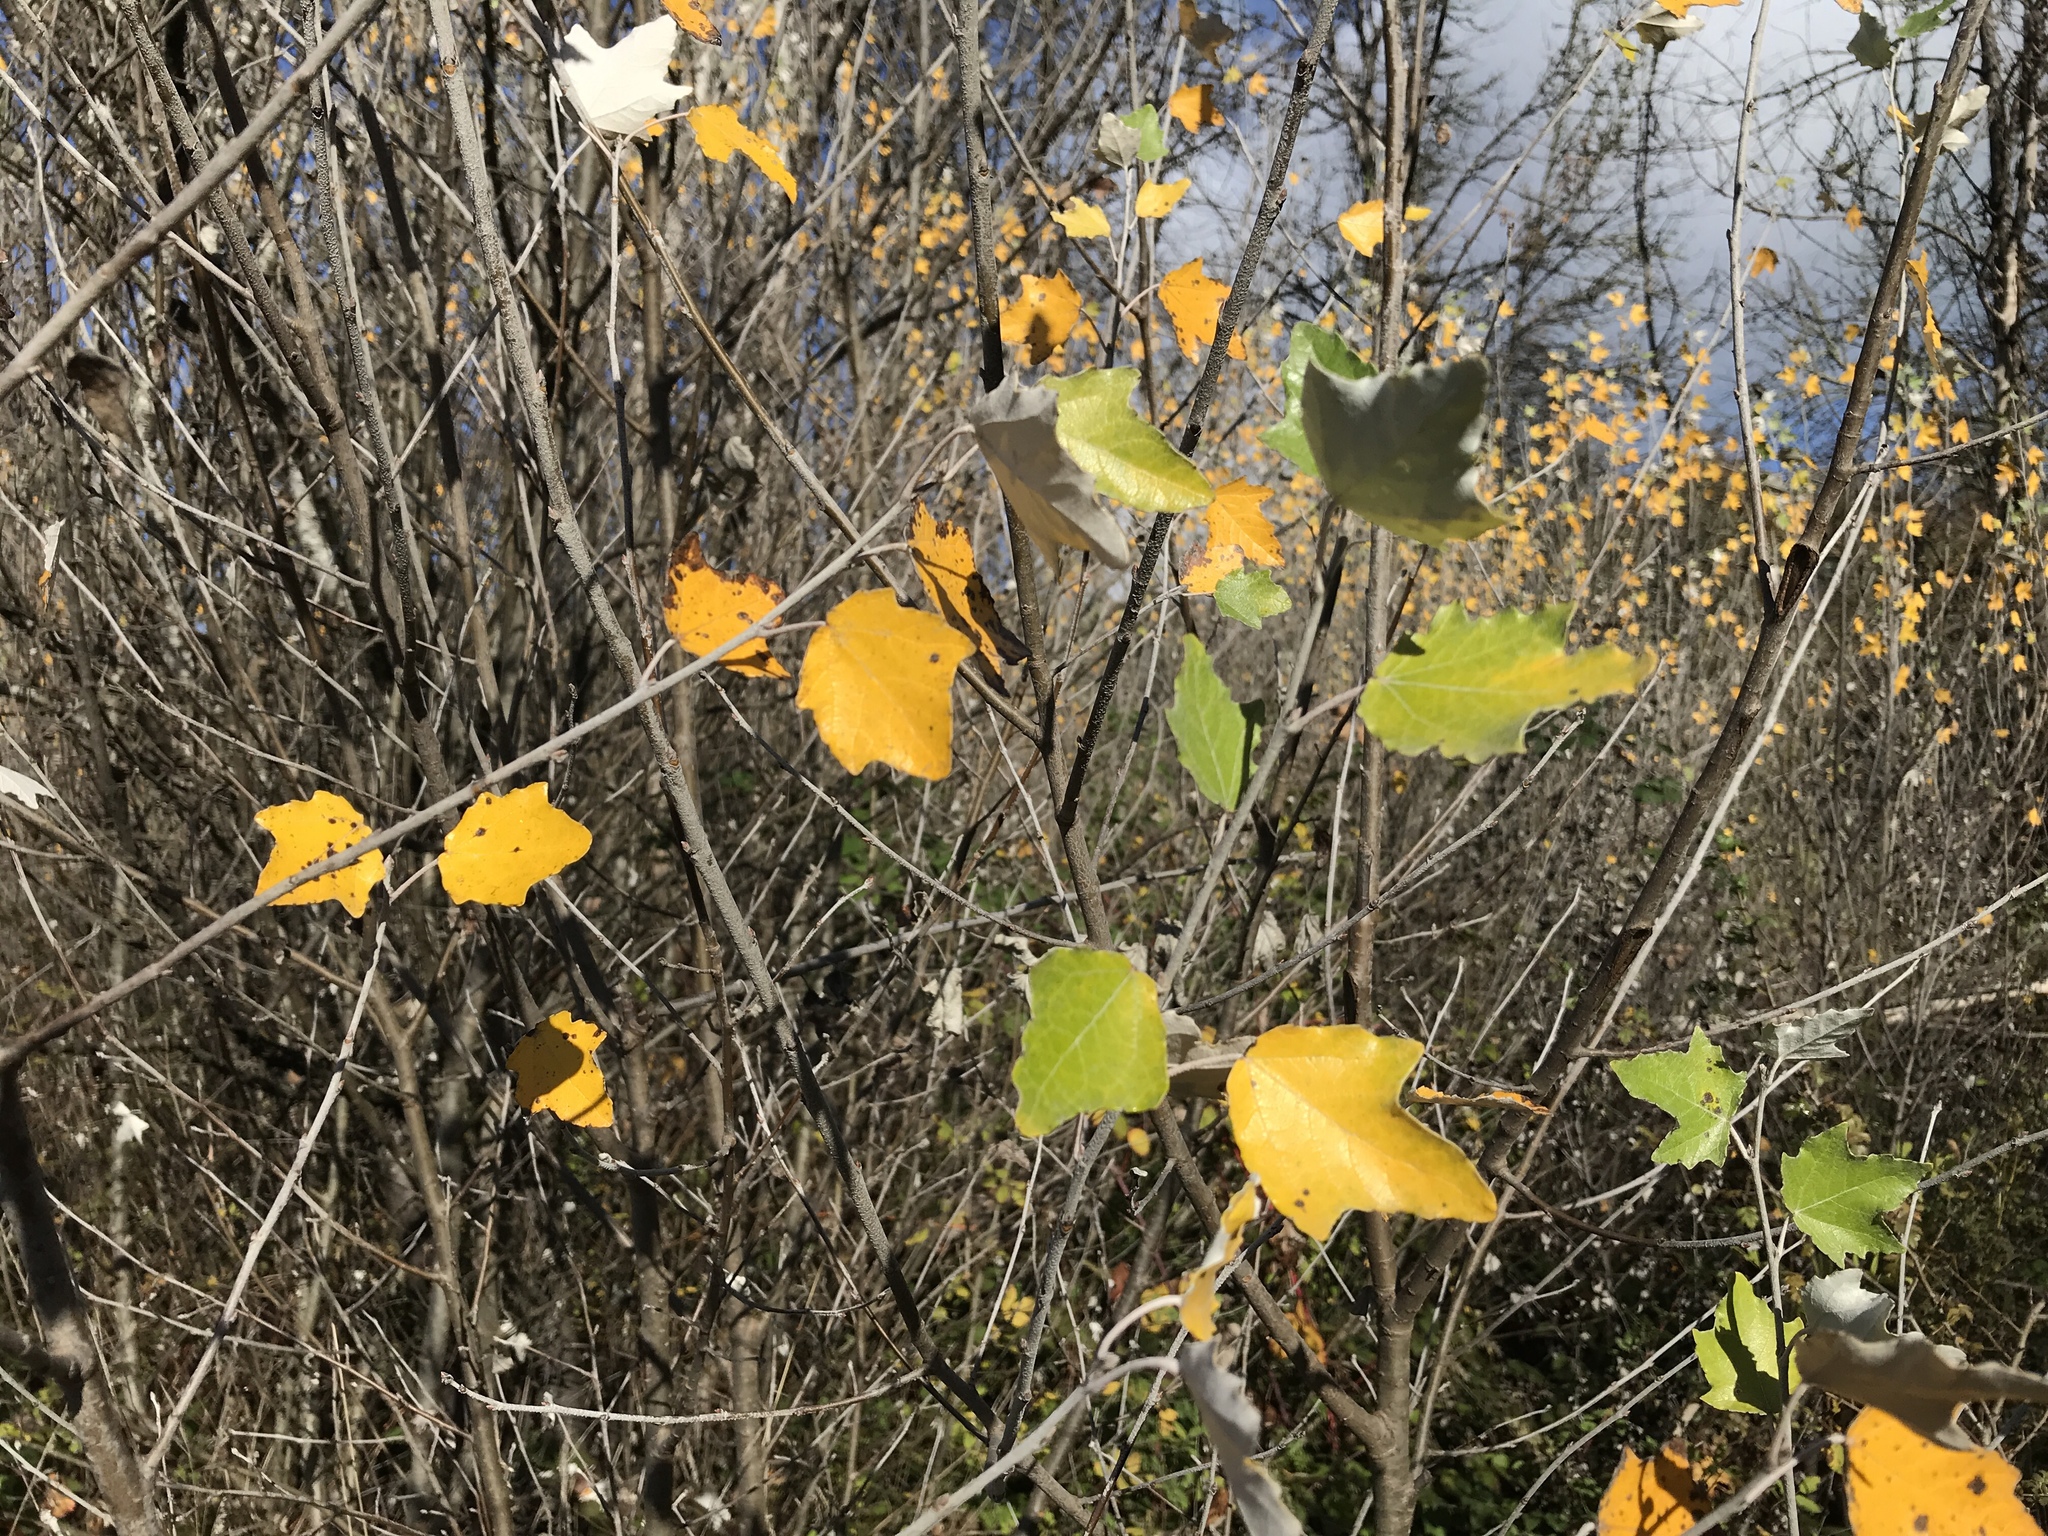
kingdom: Plantae
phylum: Tracheophyta
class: Magnoliopsida
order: Malpighiales
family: Salicaceae
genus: Populus
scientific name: Populus alba
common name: White poplar
